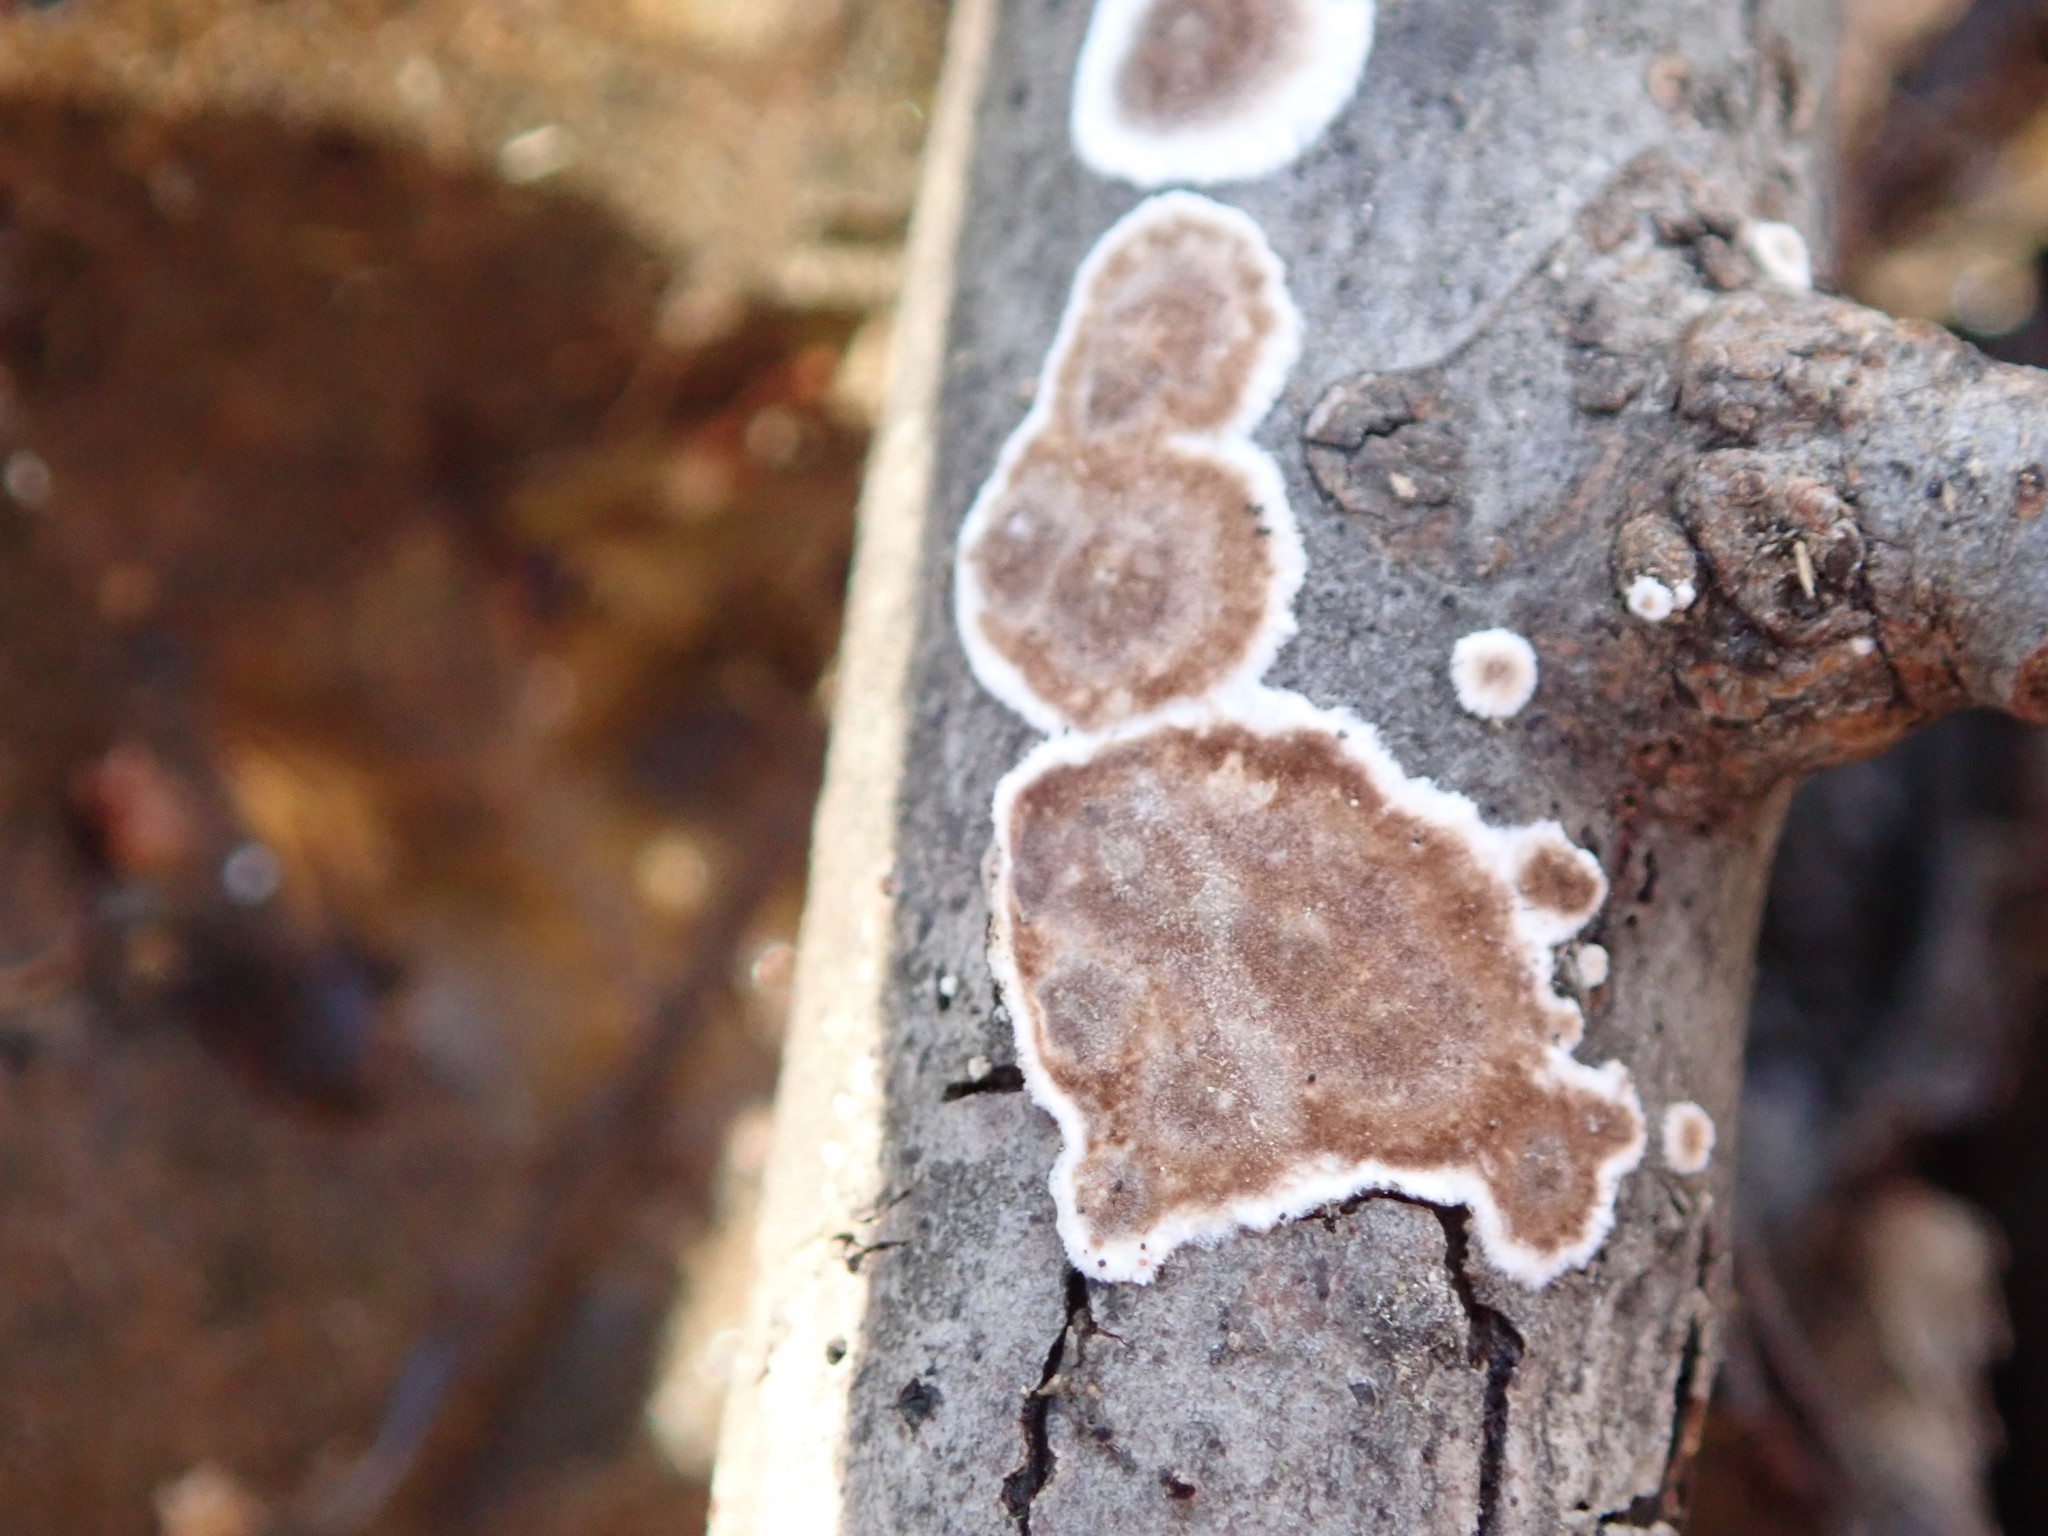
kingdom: Fungi
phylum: Basidiomycota
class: Agaricomycetes
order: Russulales
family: Peniophoraceae
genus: Peniophora
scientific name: Peniophora albobadia
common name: Giraffe spots
